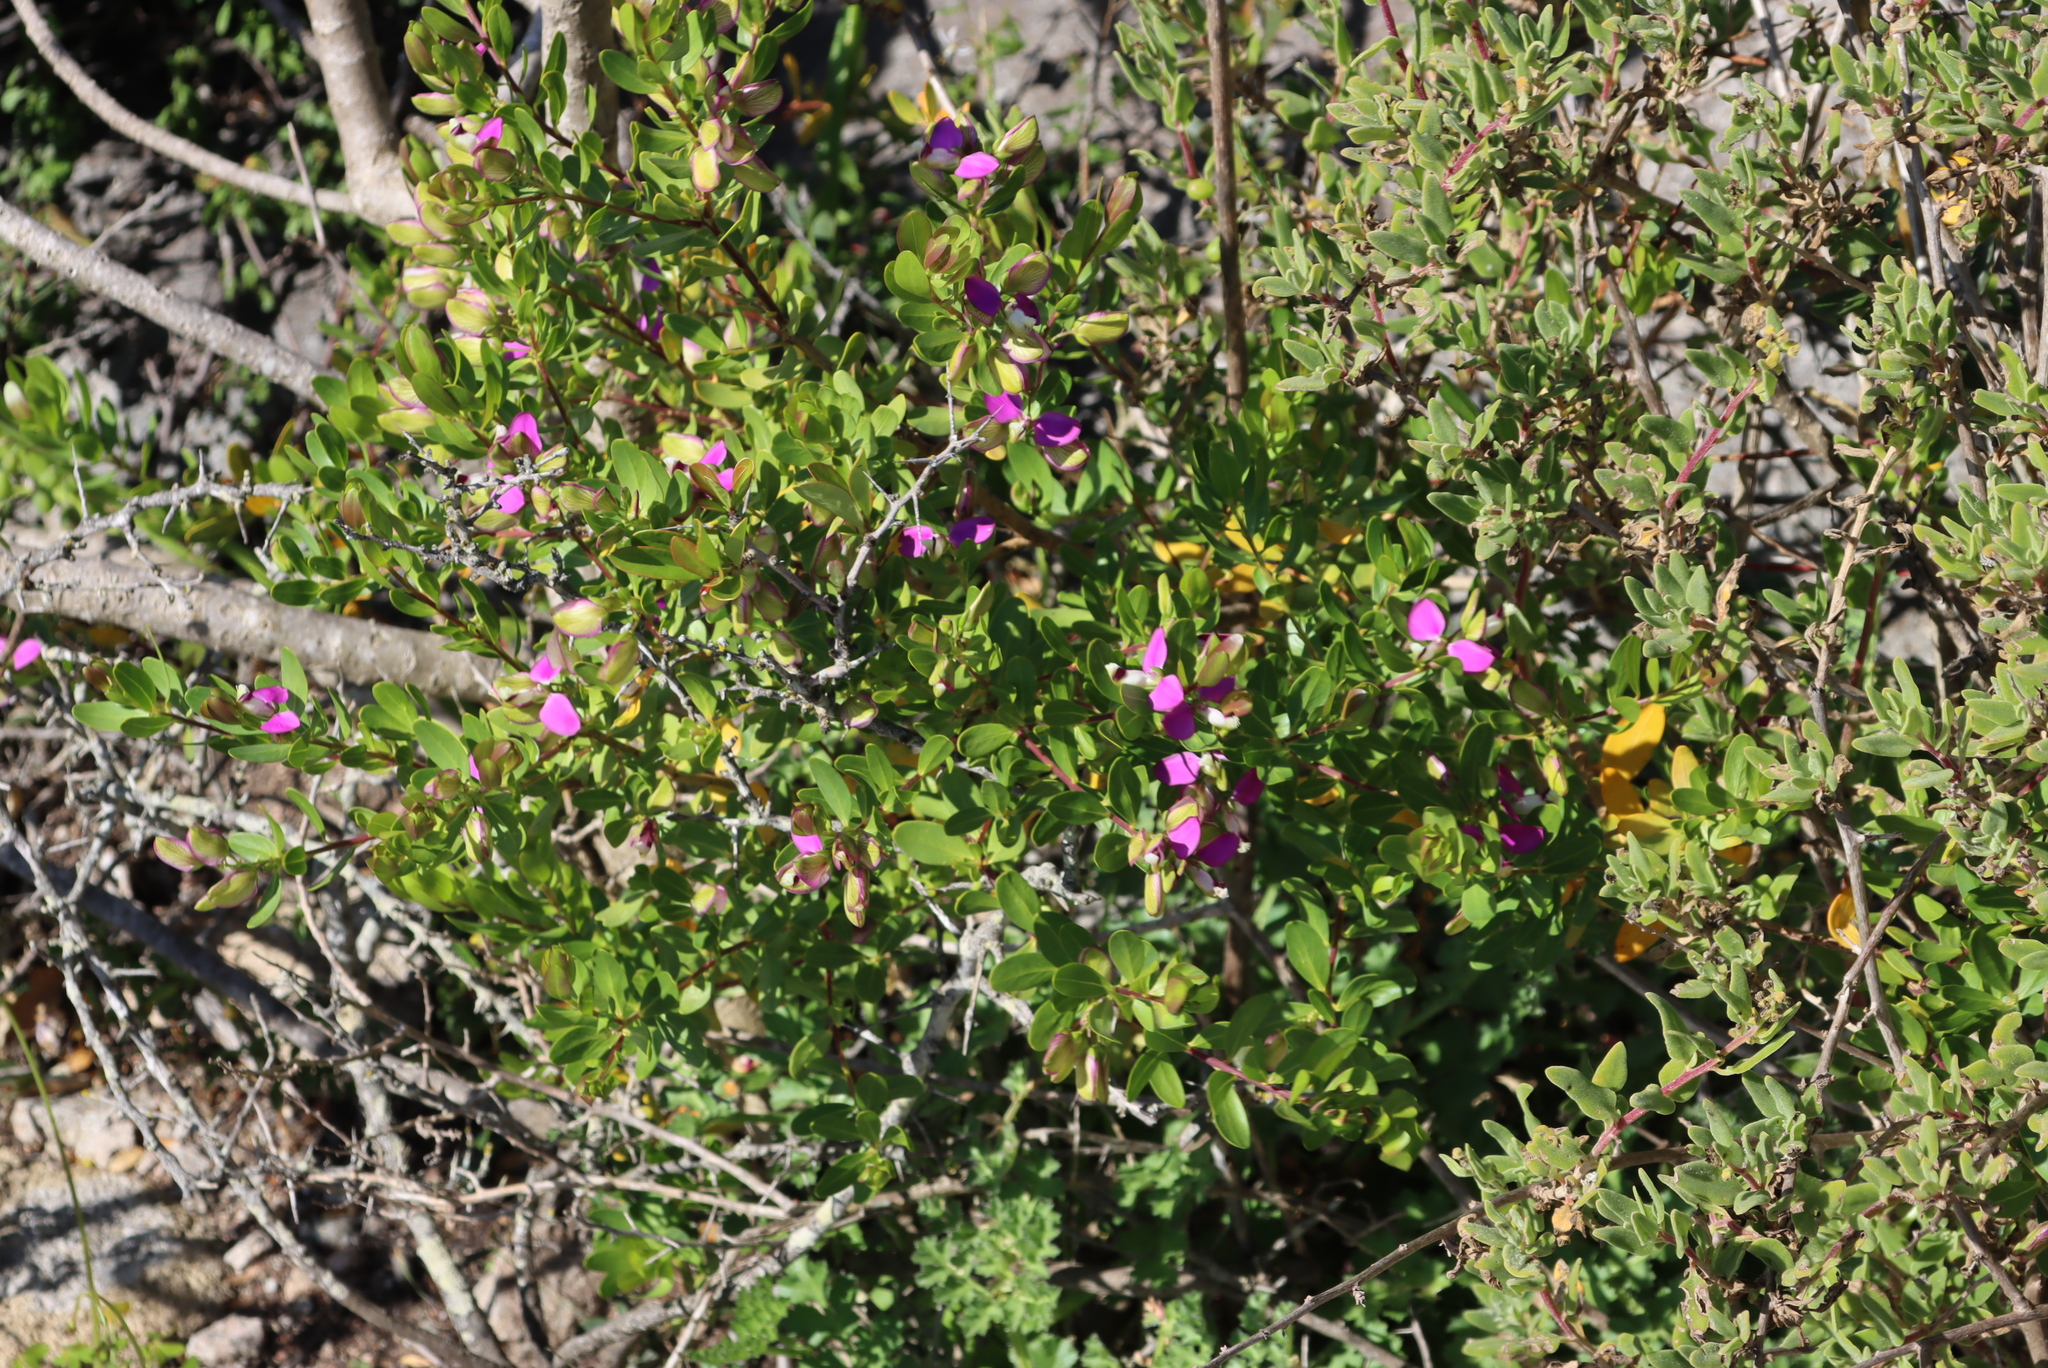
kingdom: Plantae
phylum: Tracheophyta
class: Magnoliopsida
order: Fabales
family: Polygalaceae
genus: Polygala
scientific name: Polygala myrtifolia
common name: Myrtle-leaf milkwort
